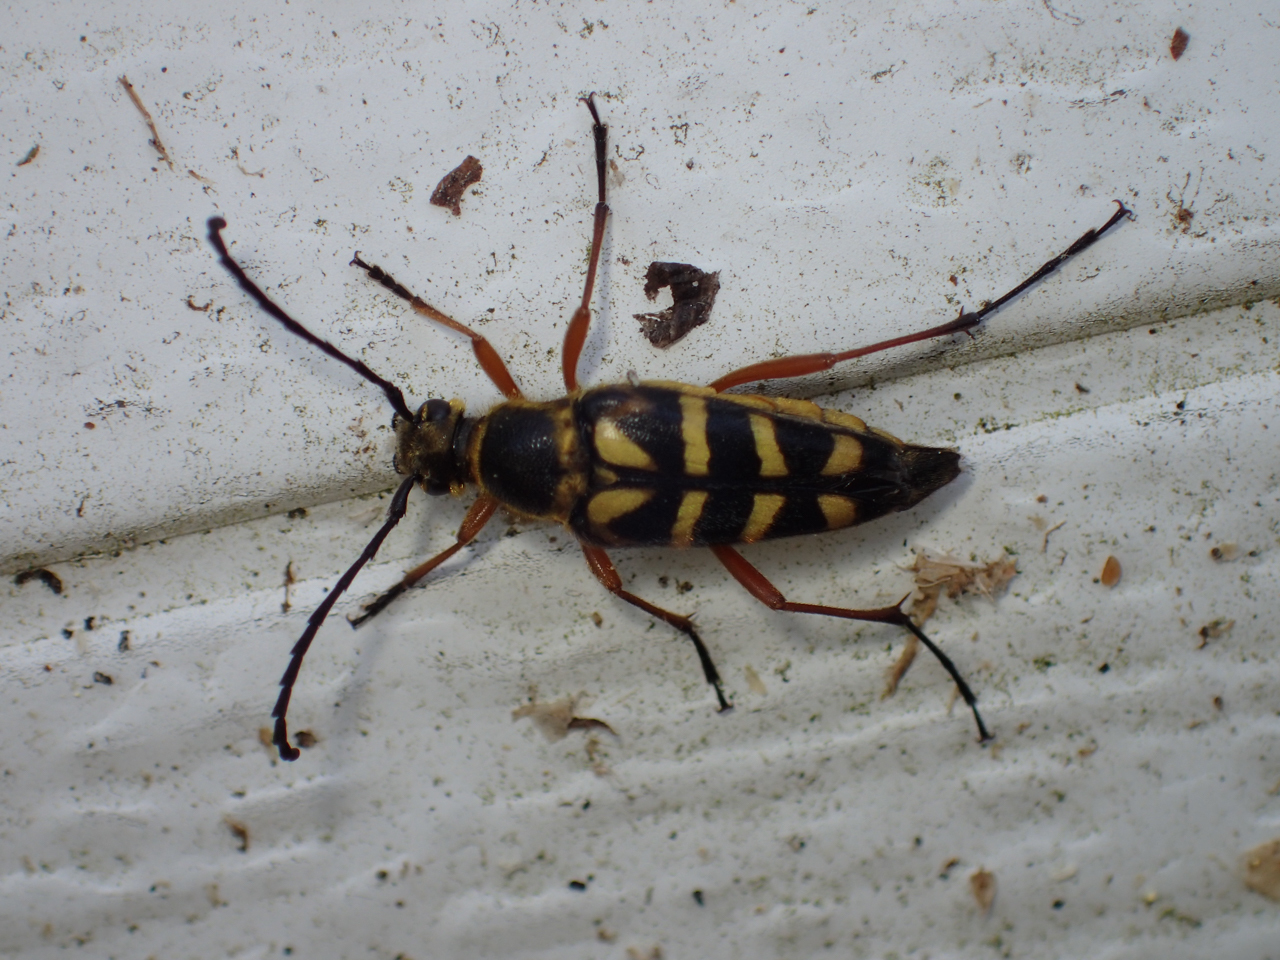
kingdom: Animalia
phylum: Arthropoda
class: Insecta
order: Coleoptera
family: Cerambycidae
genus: Typocerus
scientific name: Typocerus zebra
